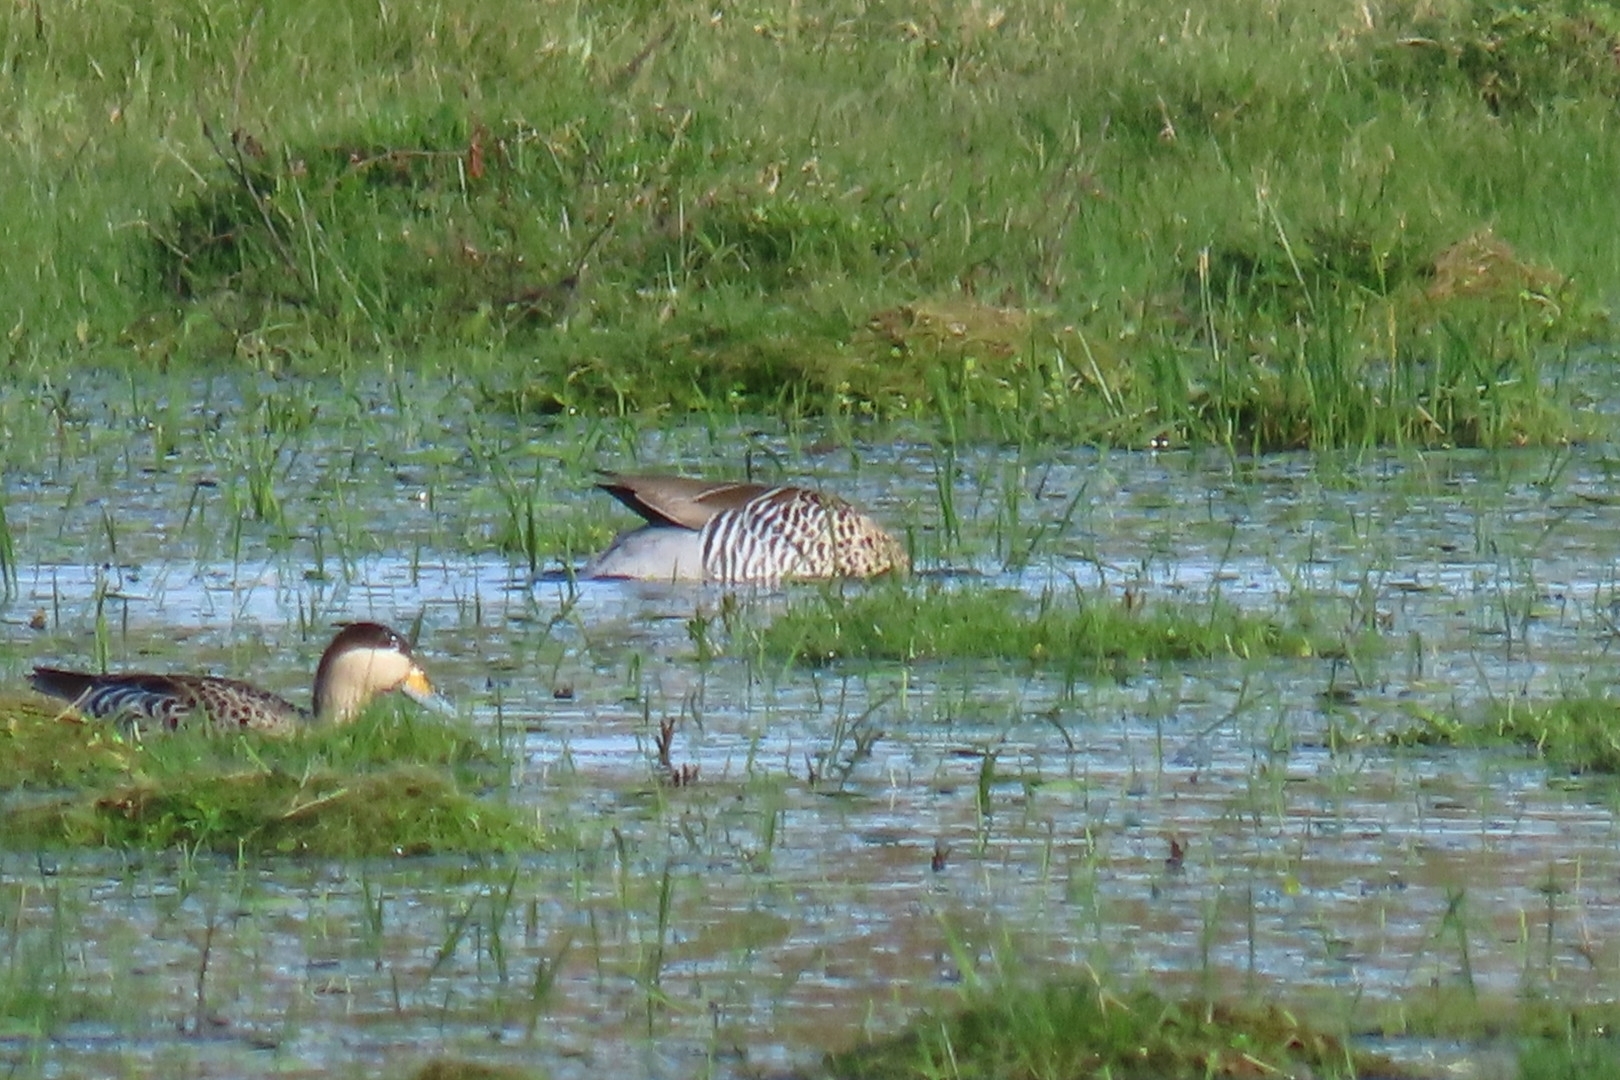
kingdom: Animalia
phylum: Chordata
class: Aves
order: Anseriformes
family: Anatidae
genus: Spatula
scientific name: Spatula versicolor
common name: Silver teal
